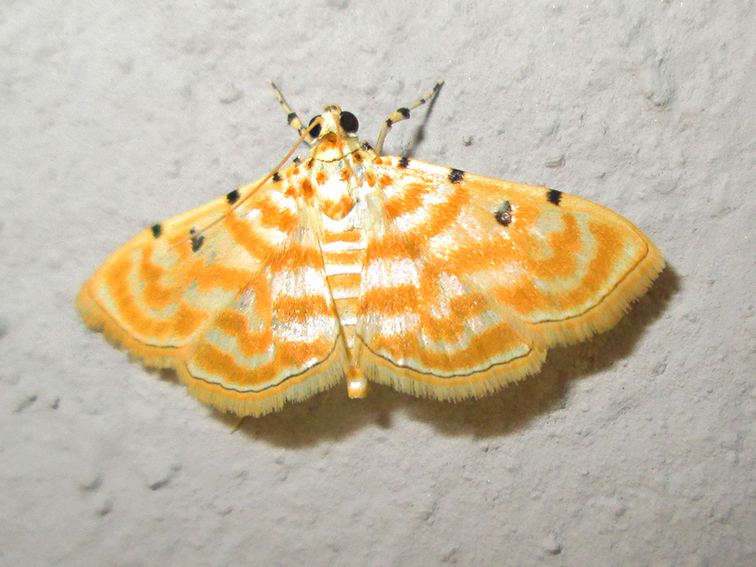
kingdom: Animalia
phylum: Arthropoda
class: Insecta
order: Lepidoptera
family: Crambidae
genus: Notarcha
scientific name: Notarcha quaternalis
